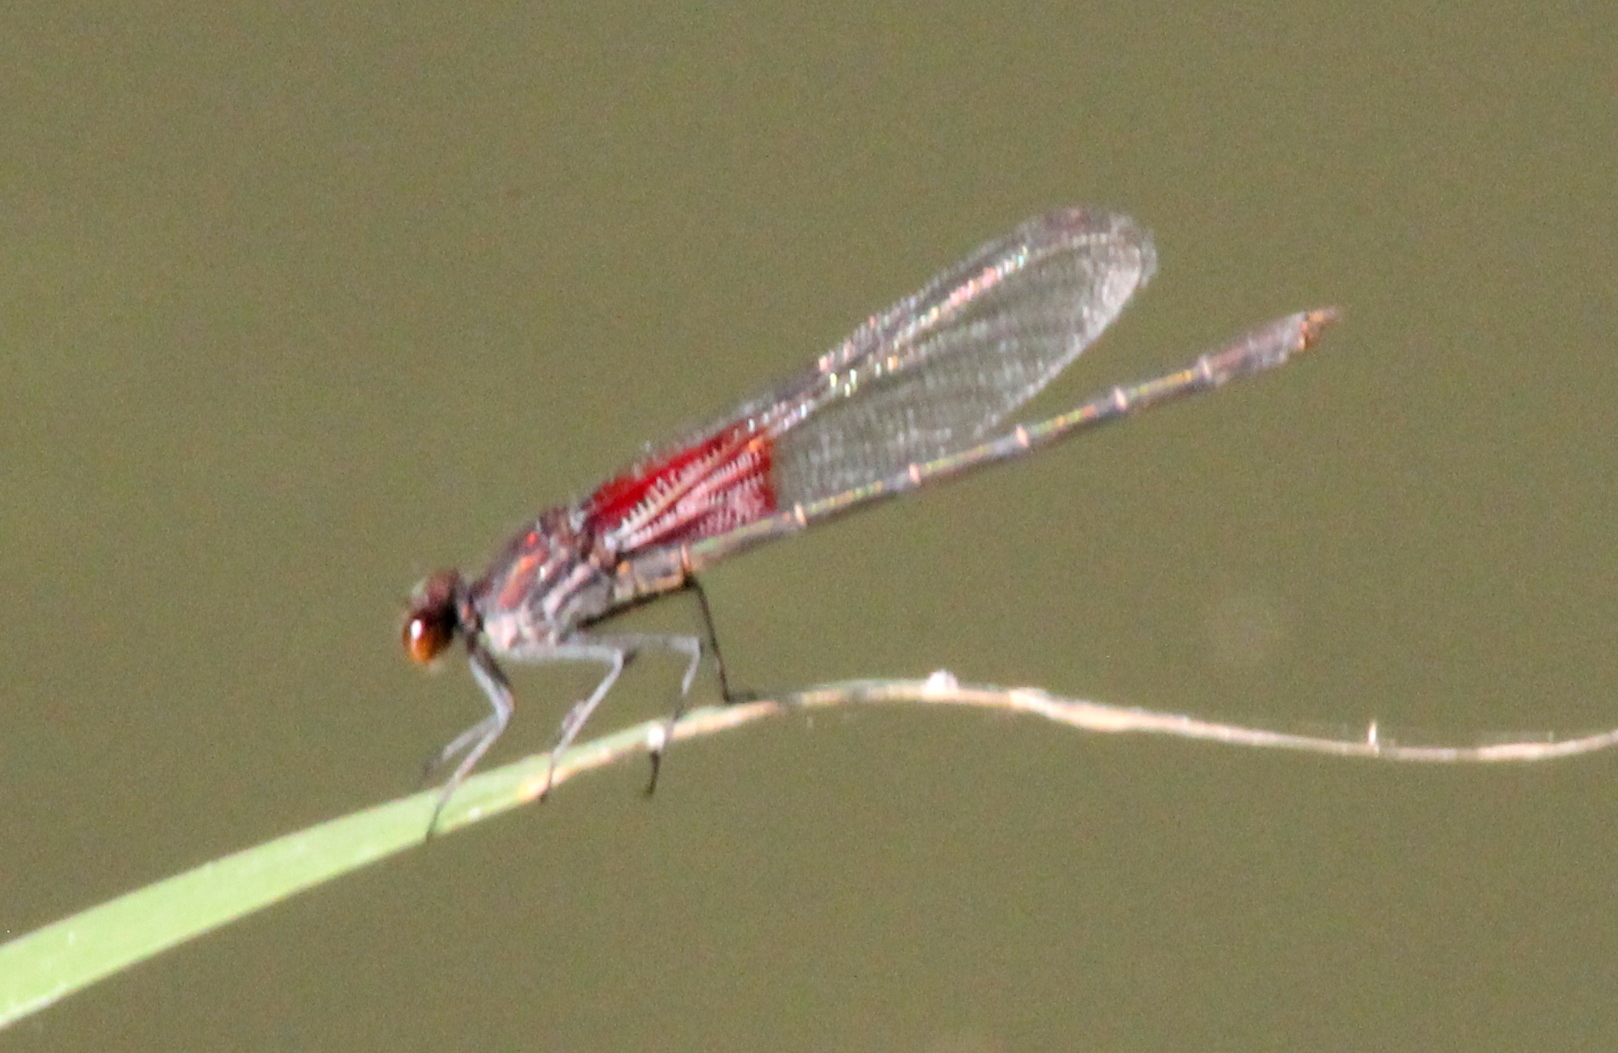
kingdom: Animalia
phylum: Arthropoda
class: Insecta
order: Odonata
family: Calopterygidae
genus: Hetaerina
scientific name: Hetaerina americana
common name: American rubyspot
